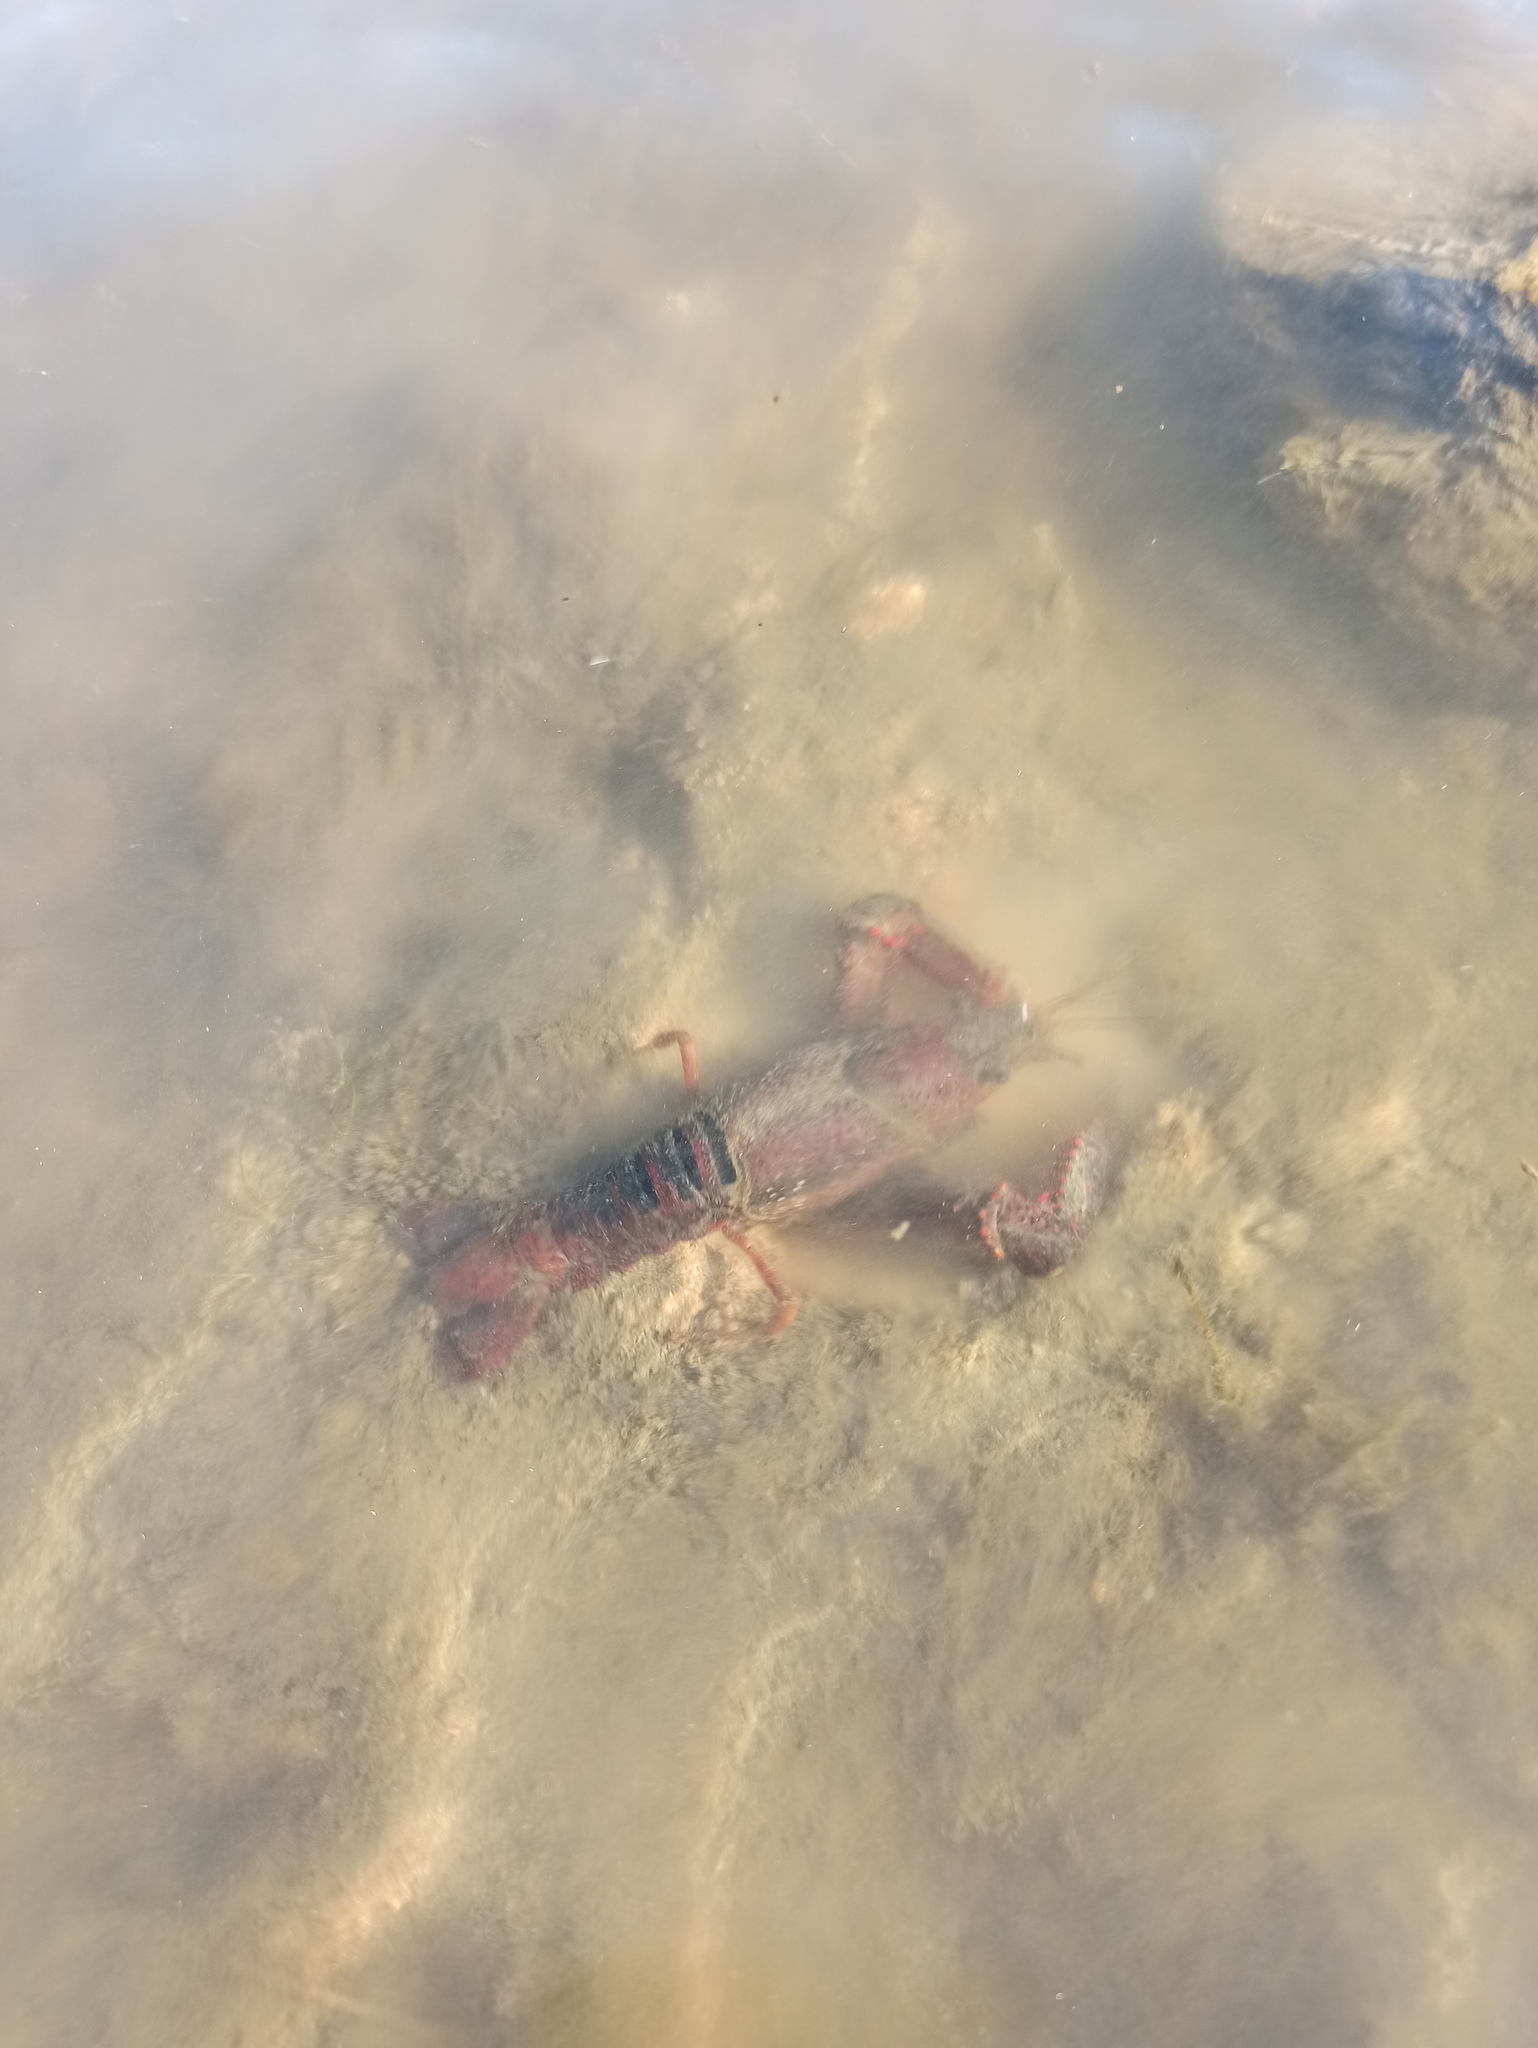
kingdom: Animalia
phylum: Arthropoda
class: Malacostraca
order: Decapoda
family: Cambaridae
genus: Procambarus
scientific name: Procambarus clarkii
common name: Red swamp crayfish
